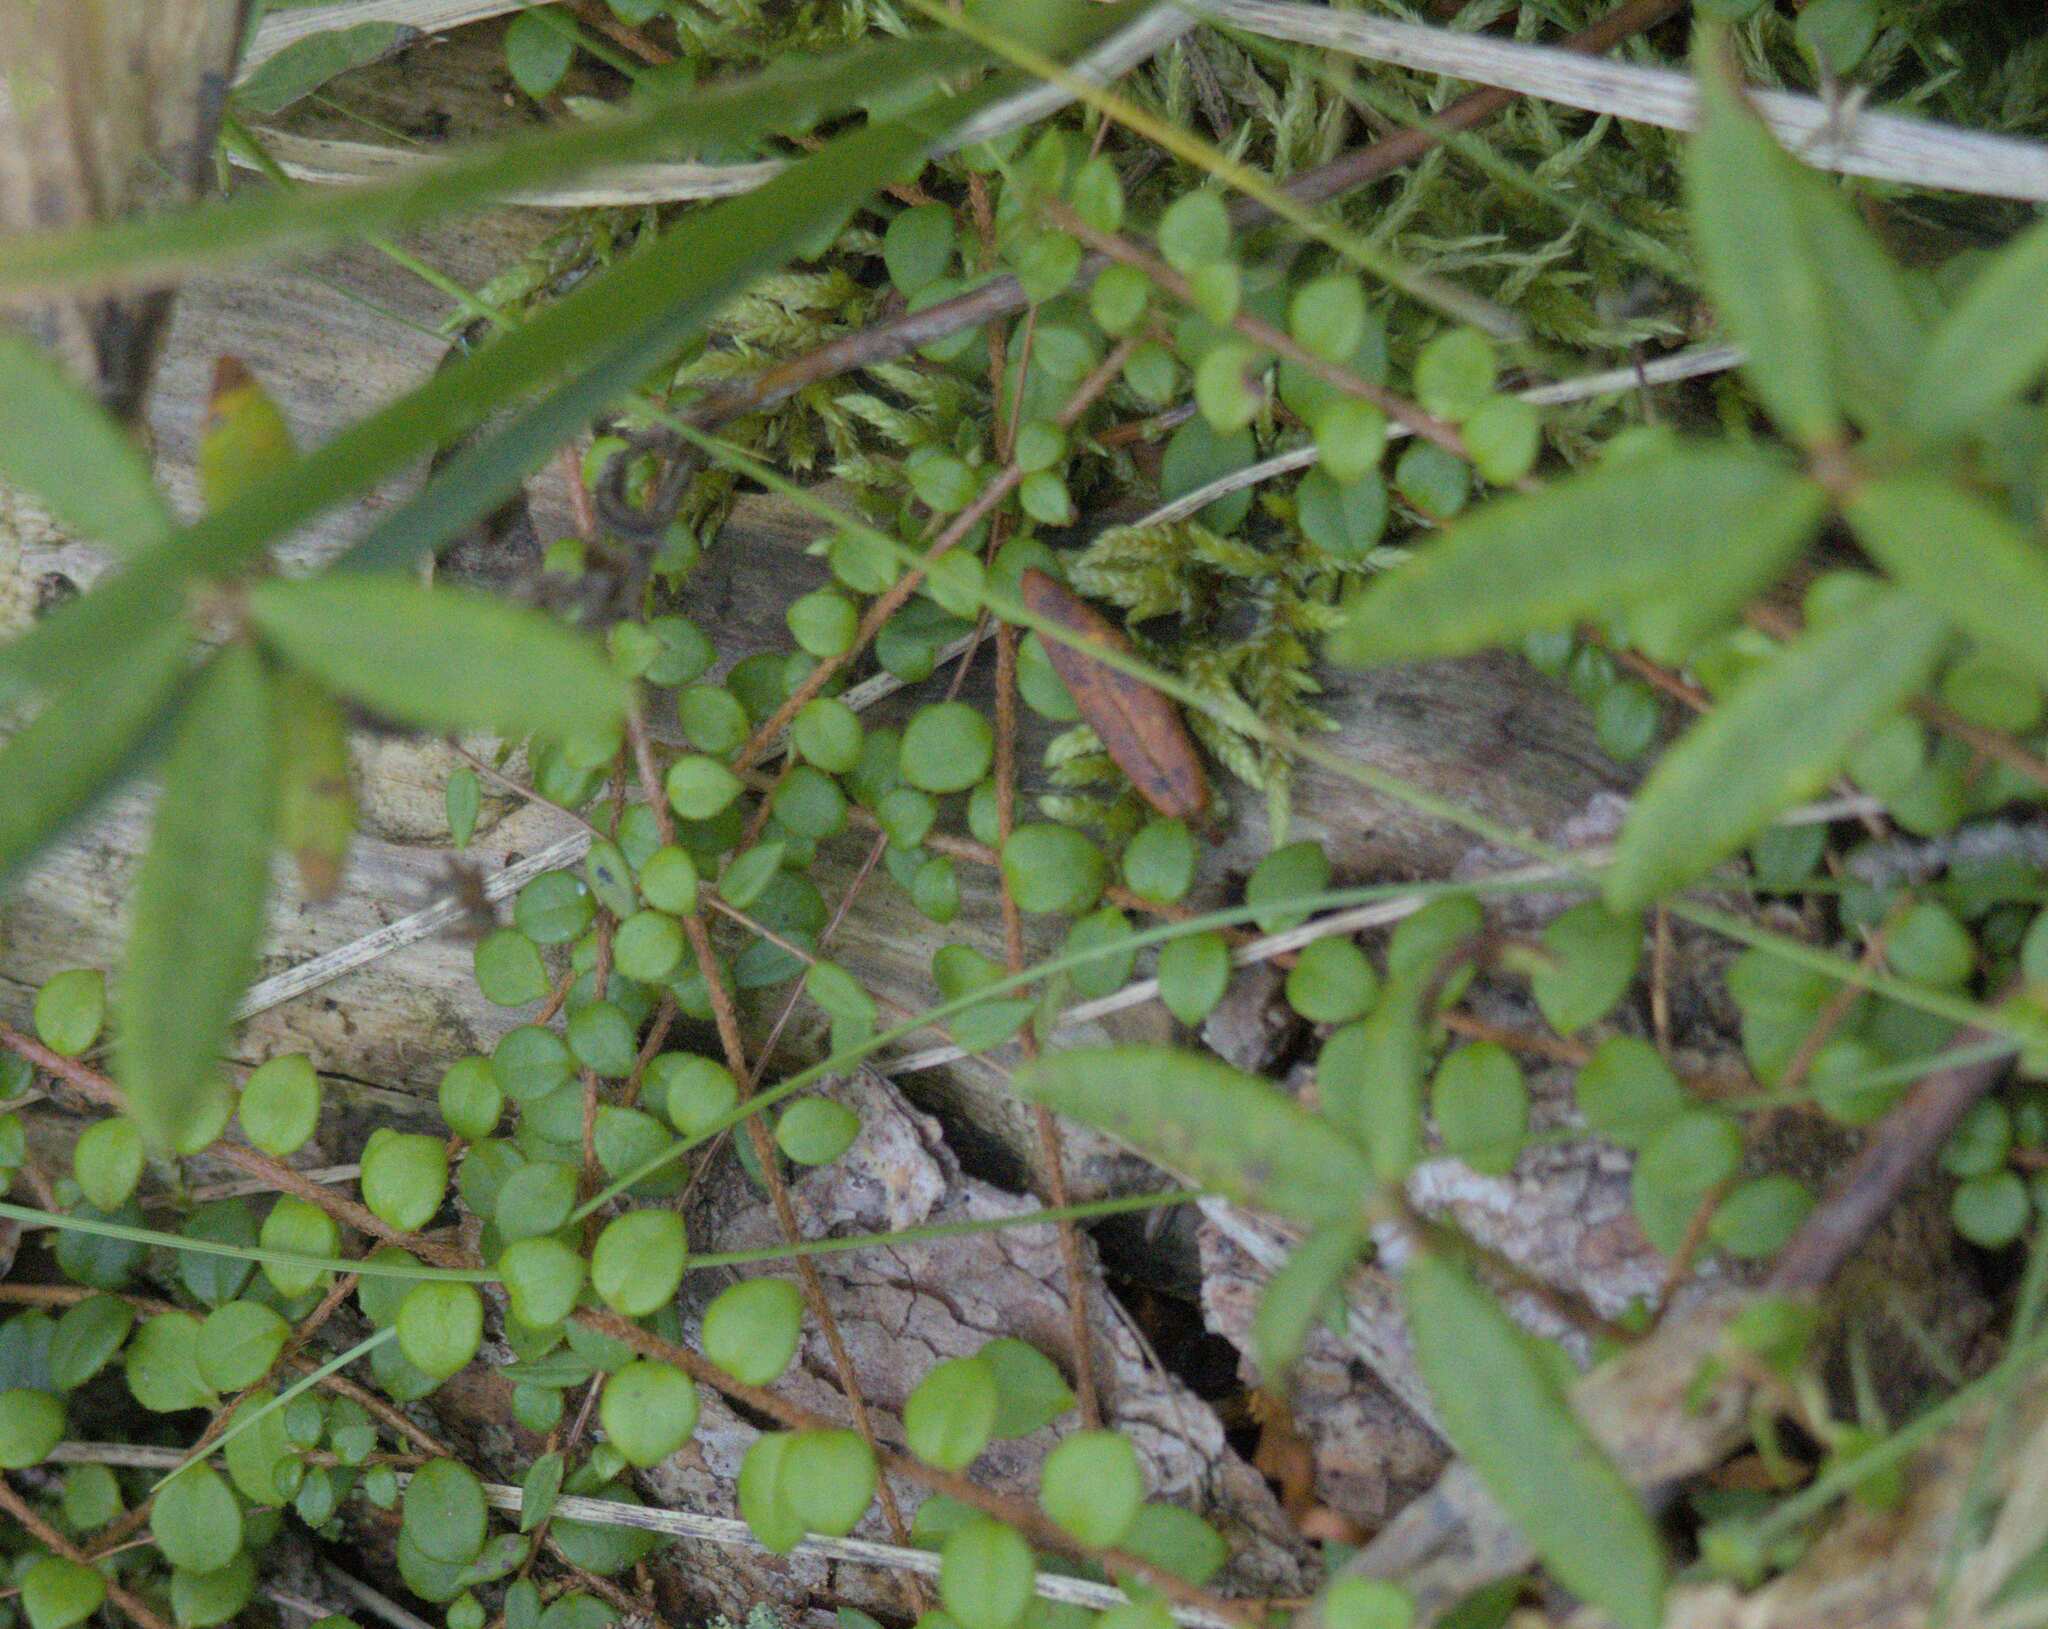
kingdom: Plantae
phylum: Tracheophyta
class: Magnoliopsida
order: Ericales
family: Ericaceae
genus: Gaultheria
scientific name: Gaultheria hispidula
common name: Cancer wintergreen
